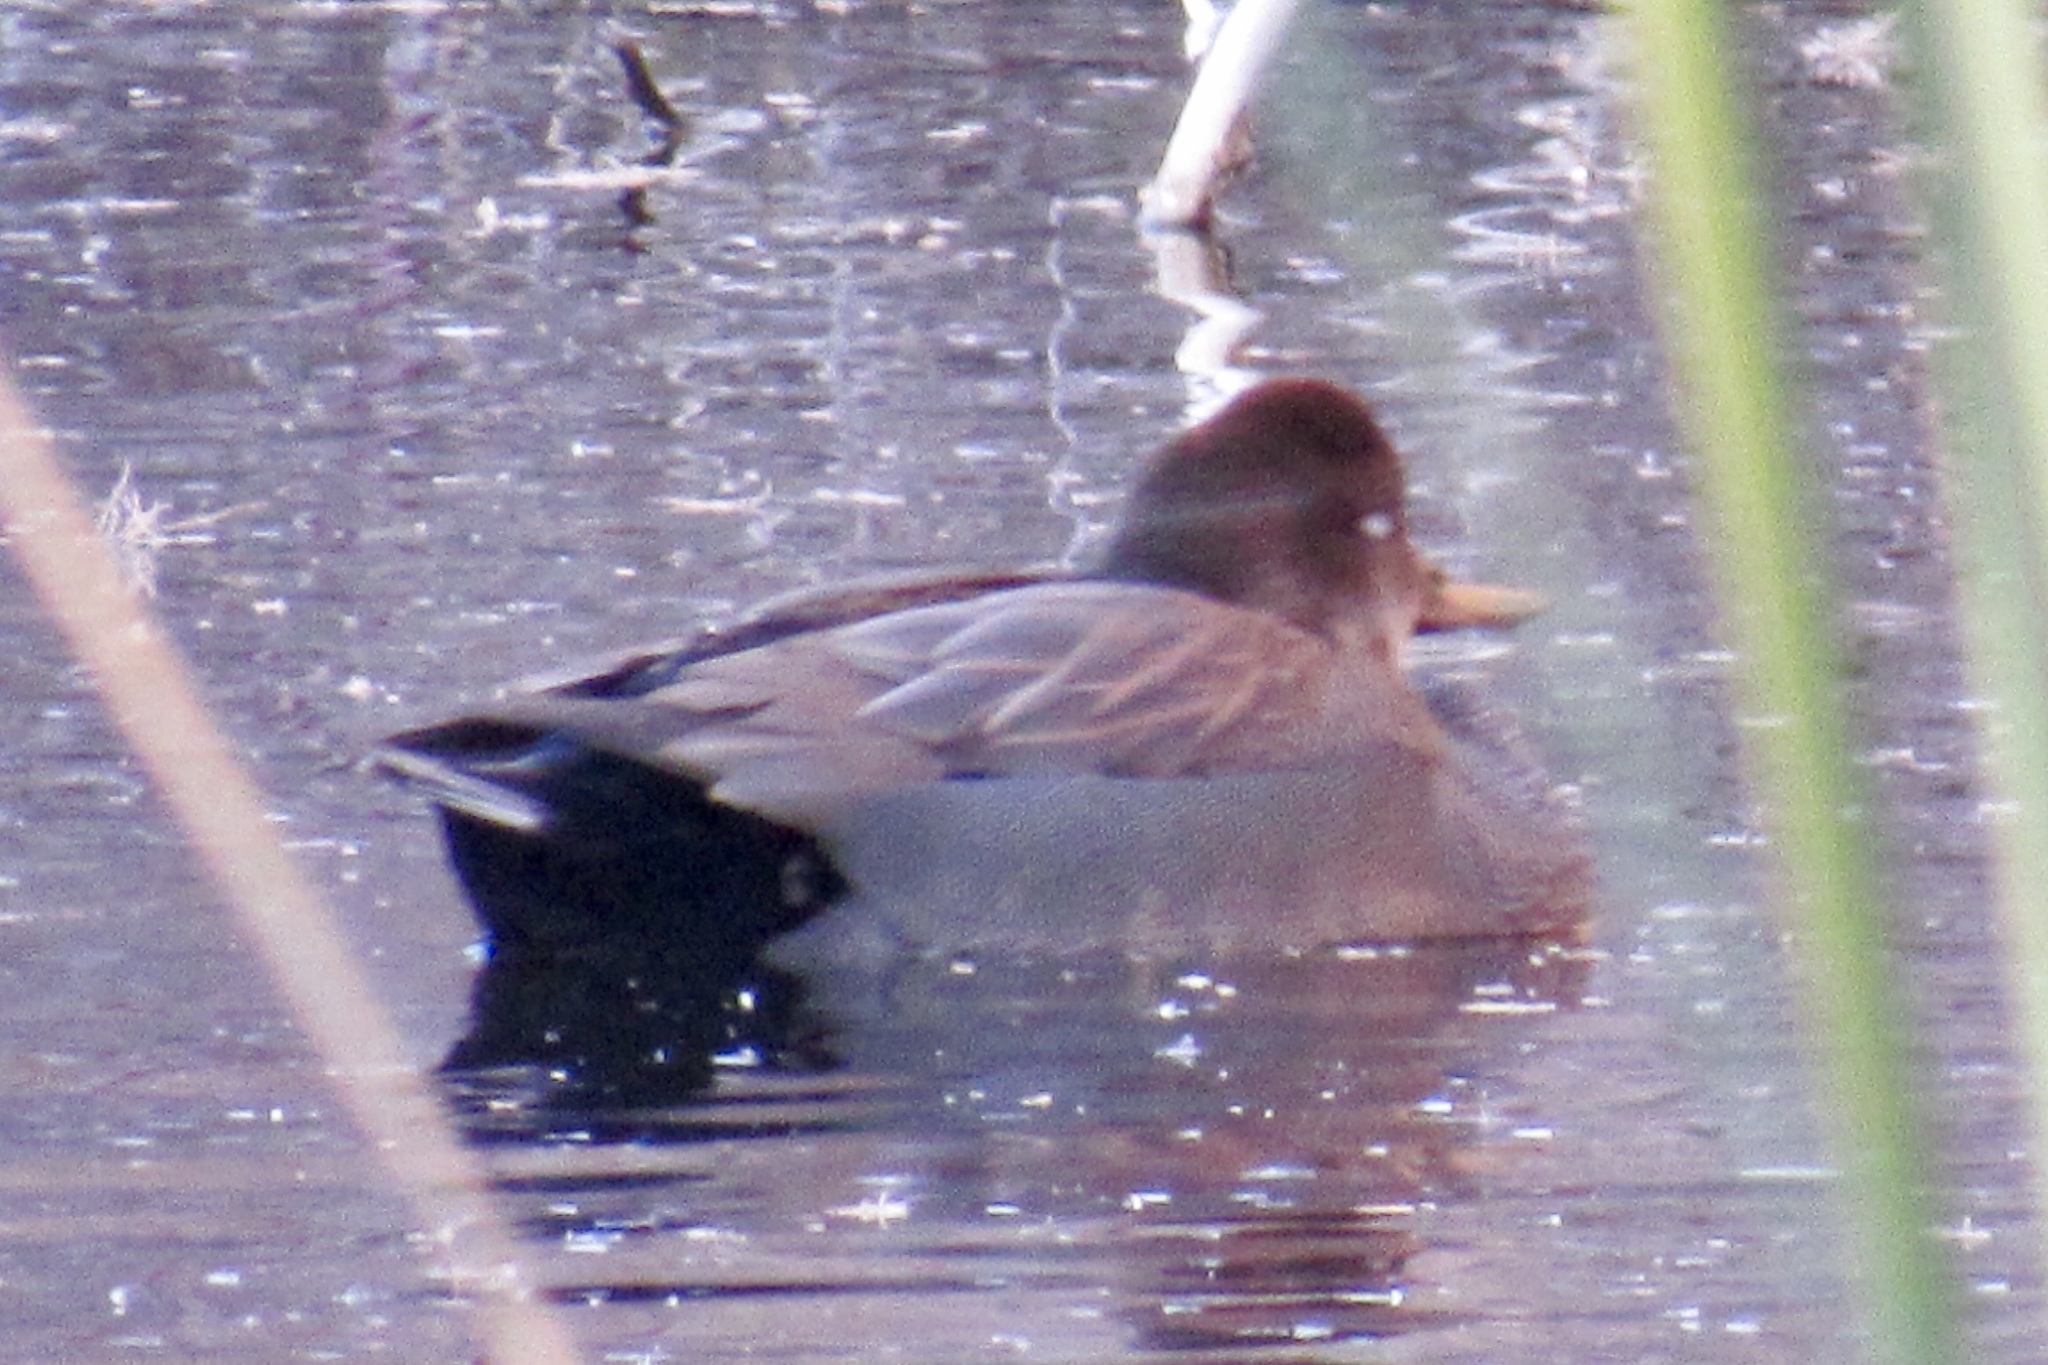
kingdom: Animalia
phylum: Chordata
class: Aves
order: Anseriformes
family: Anatidae
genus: Mareca
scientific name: Mareca strepera
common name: Gadwall
